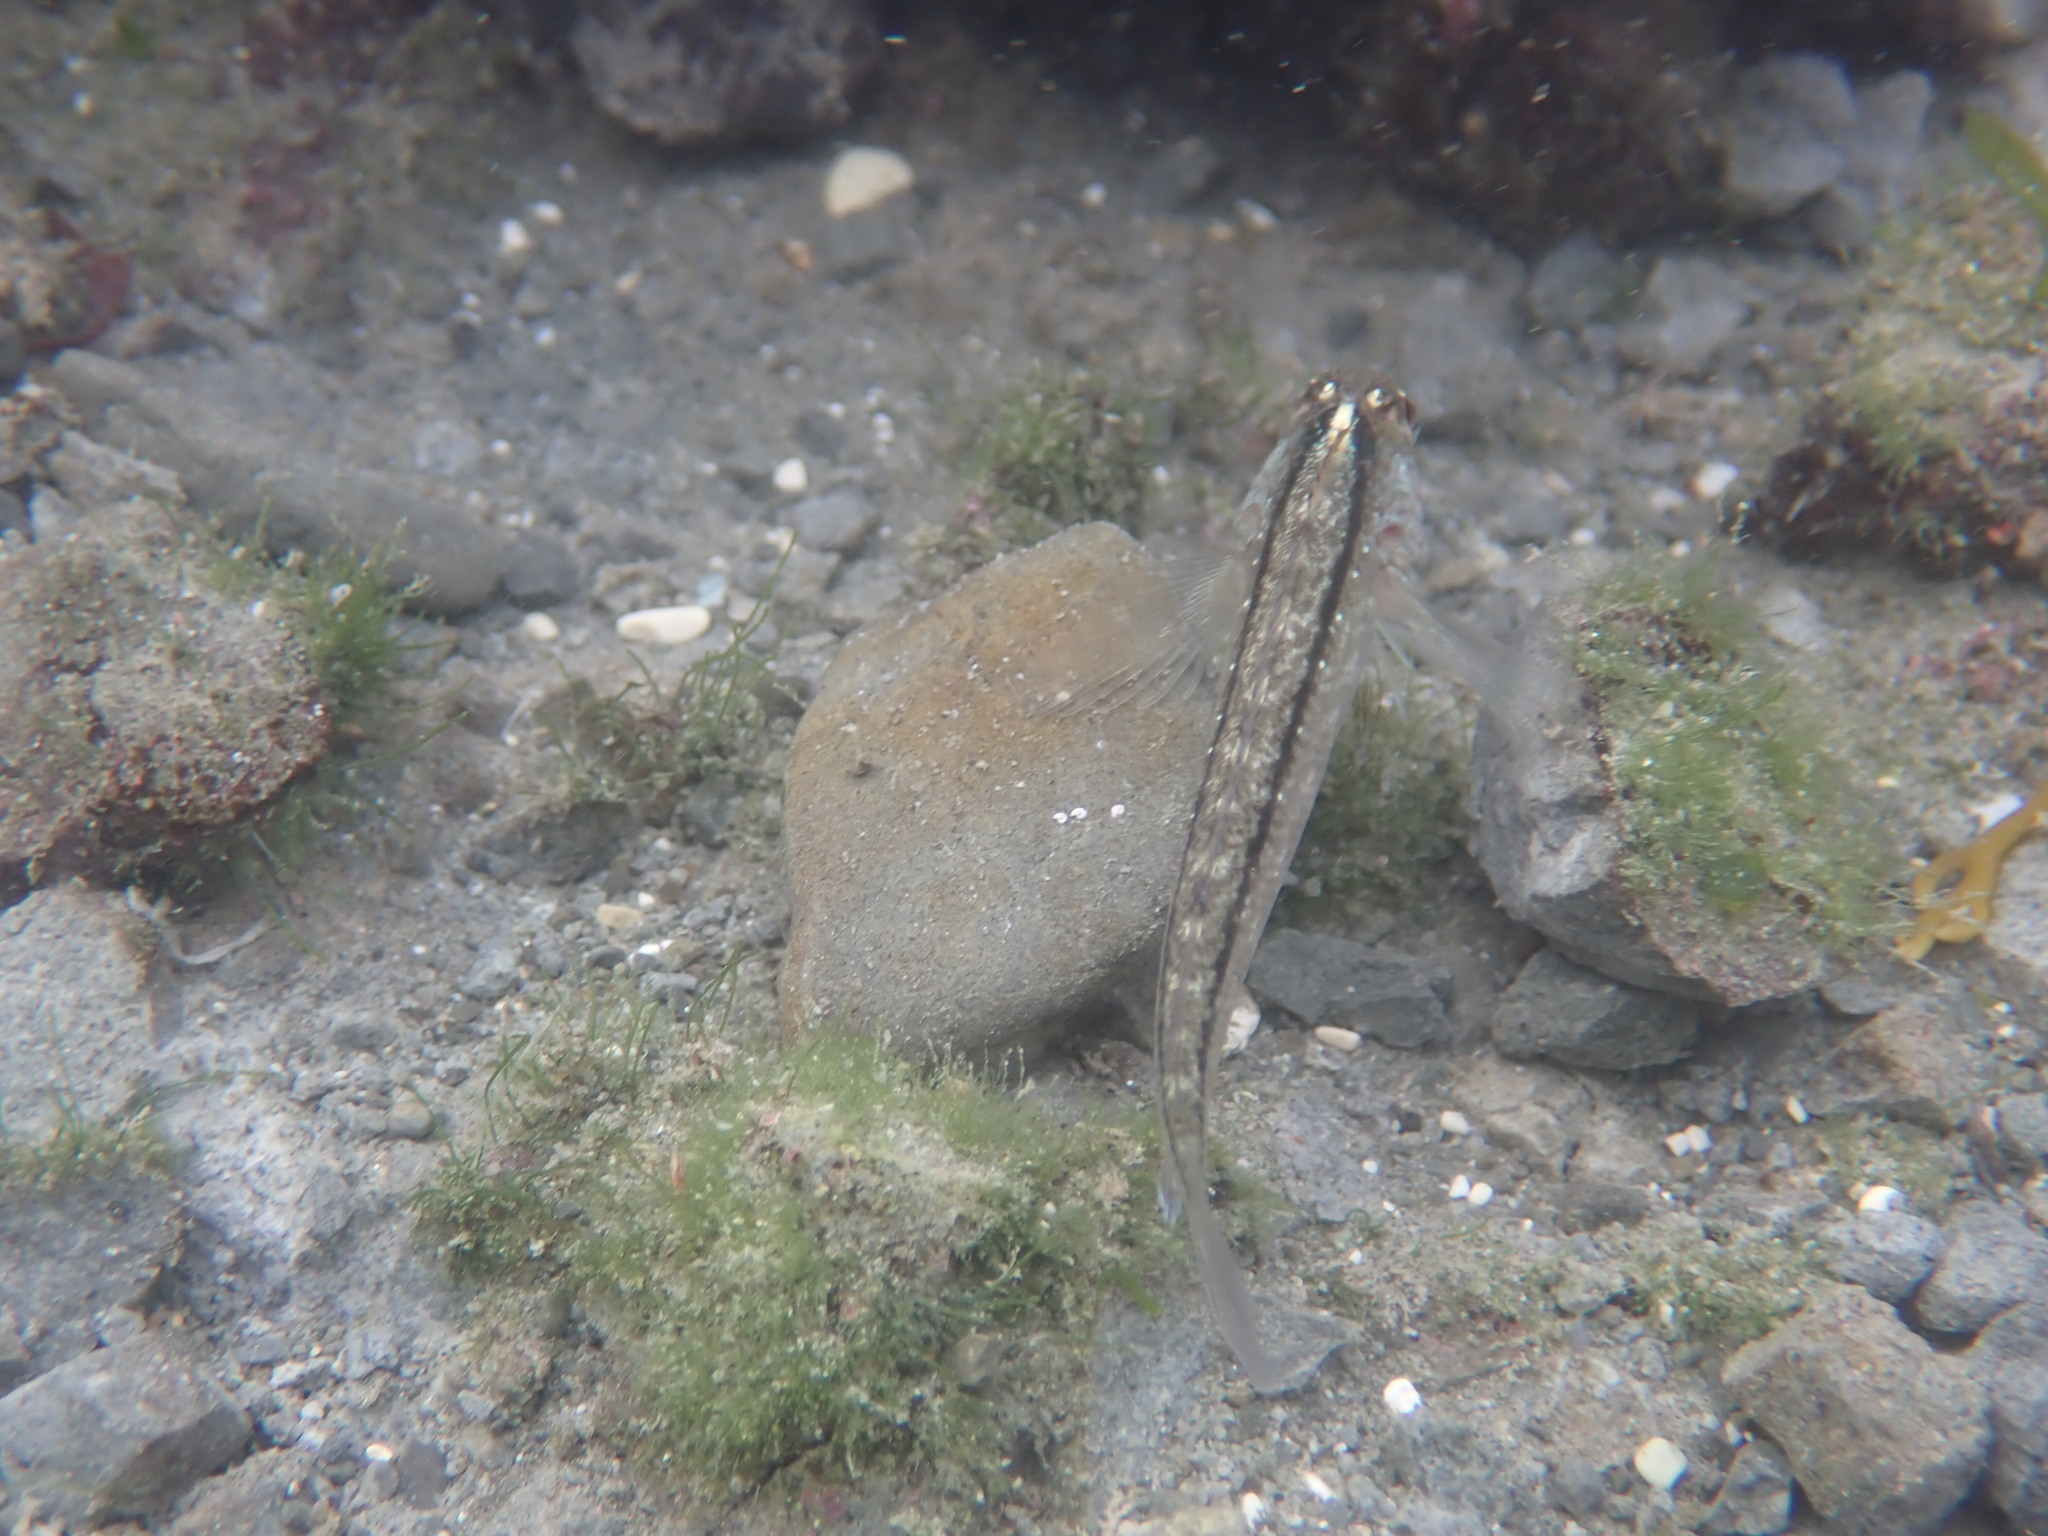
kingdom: Animalia
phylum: Chordata
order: Perciformes
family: Tripterygiidae
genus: Forsterygion
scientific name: Forsterygion lapillum
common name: Common triplefin
